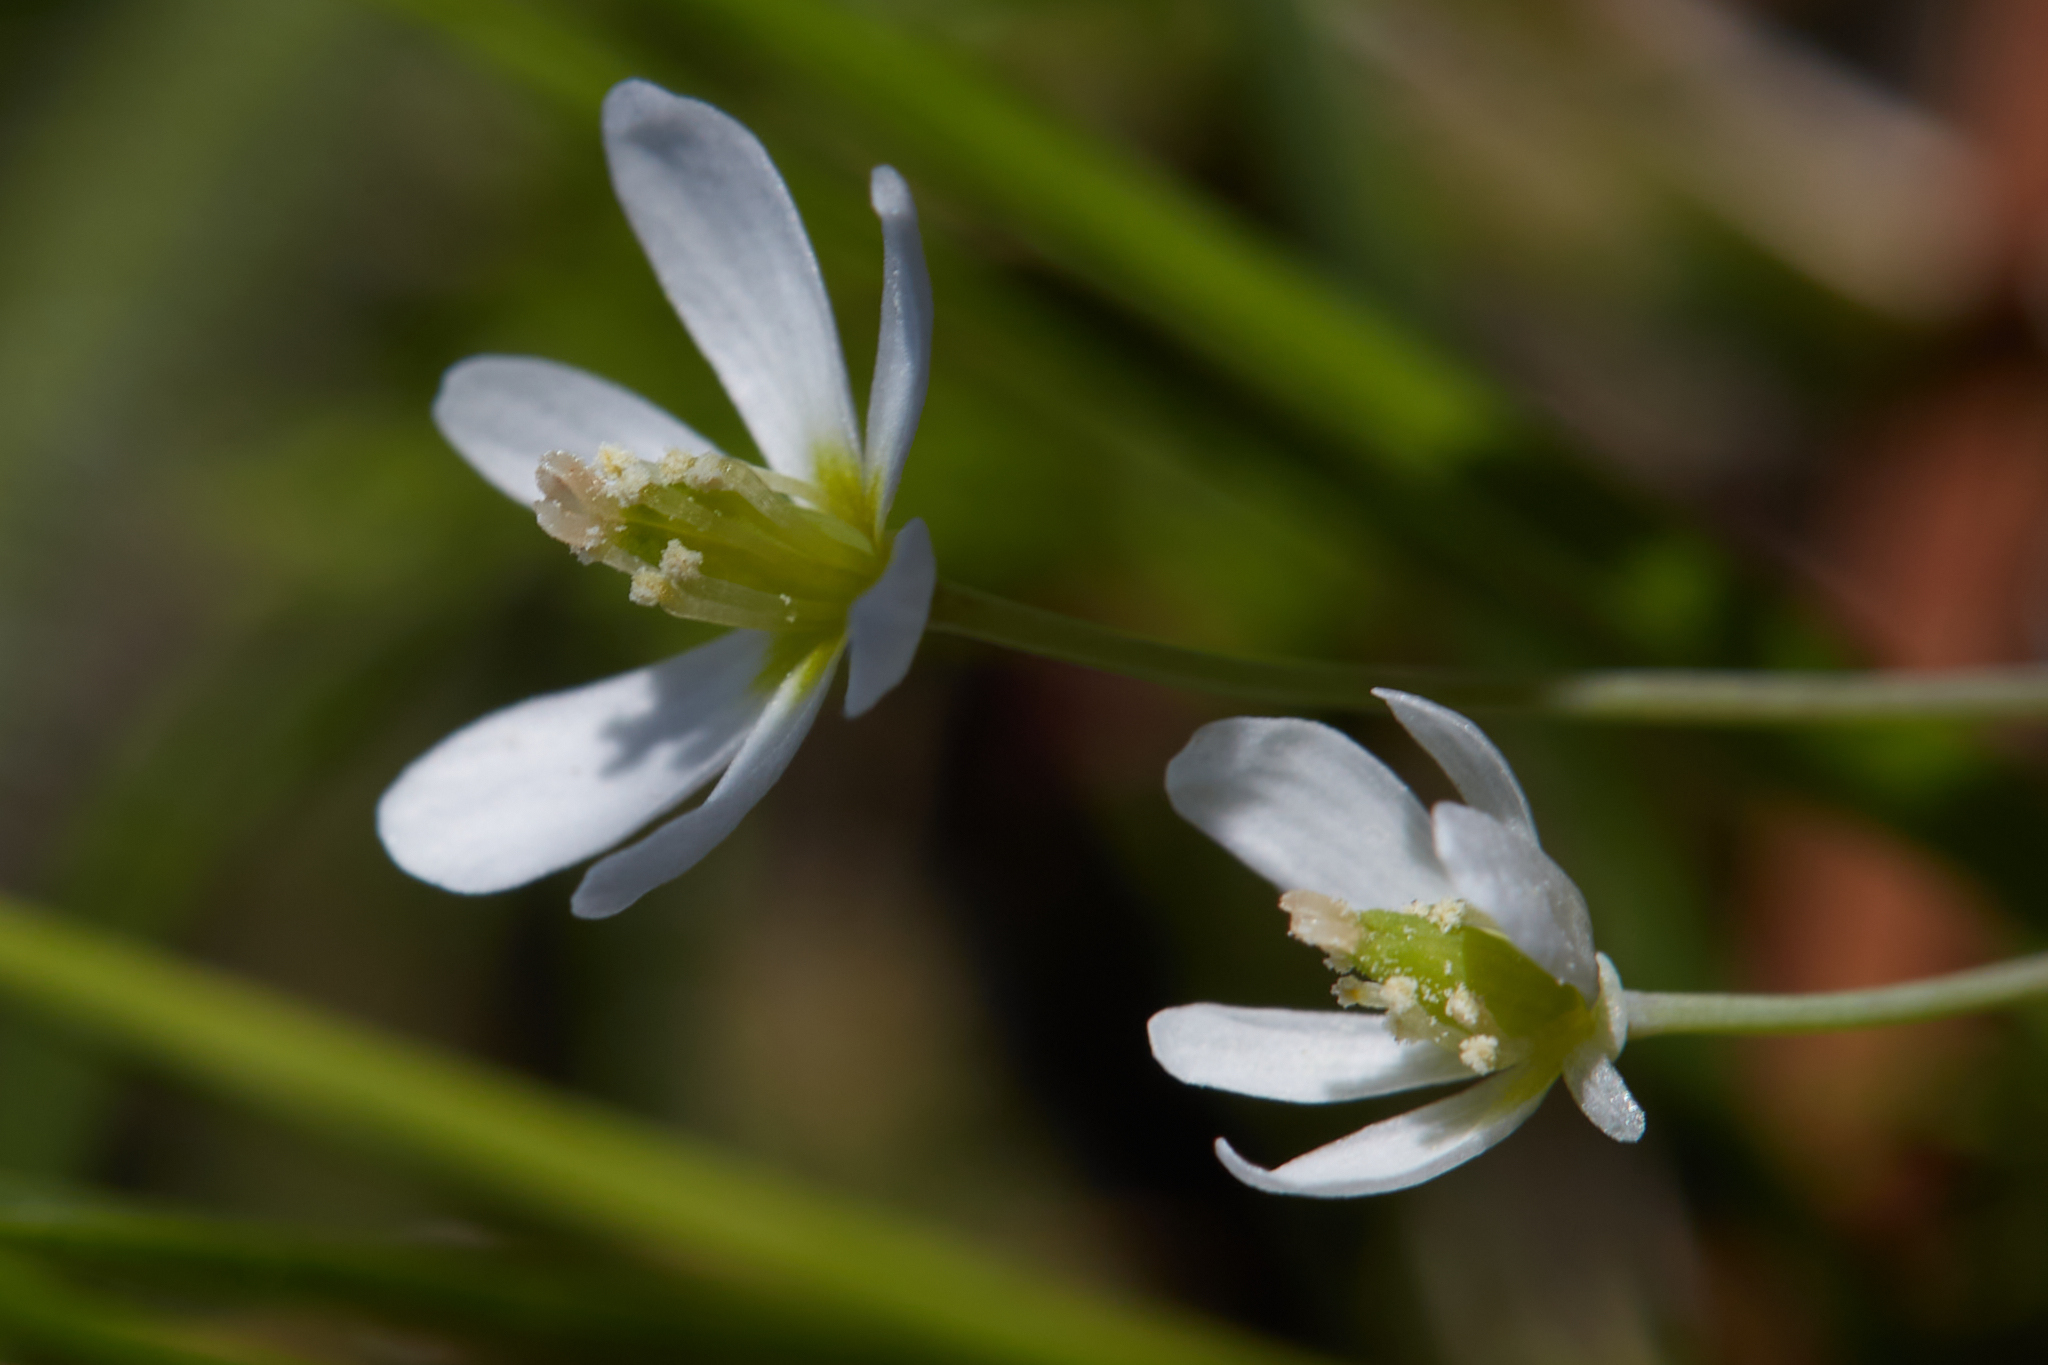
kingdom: Plantae
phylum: Tracheophyta
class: Magnoliopsida
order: Ranunculales
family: Papaveraceae
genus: Meconella
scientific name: Meconella oregana
